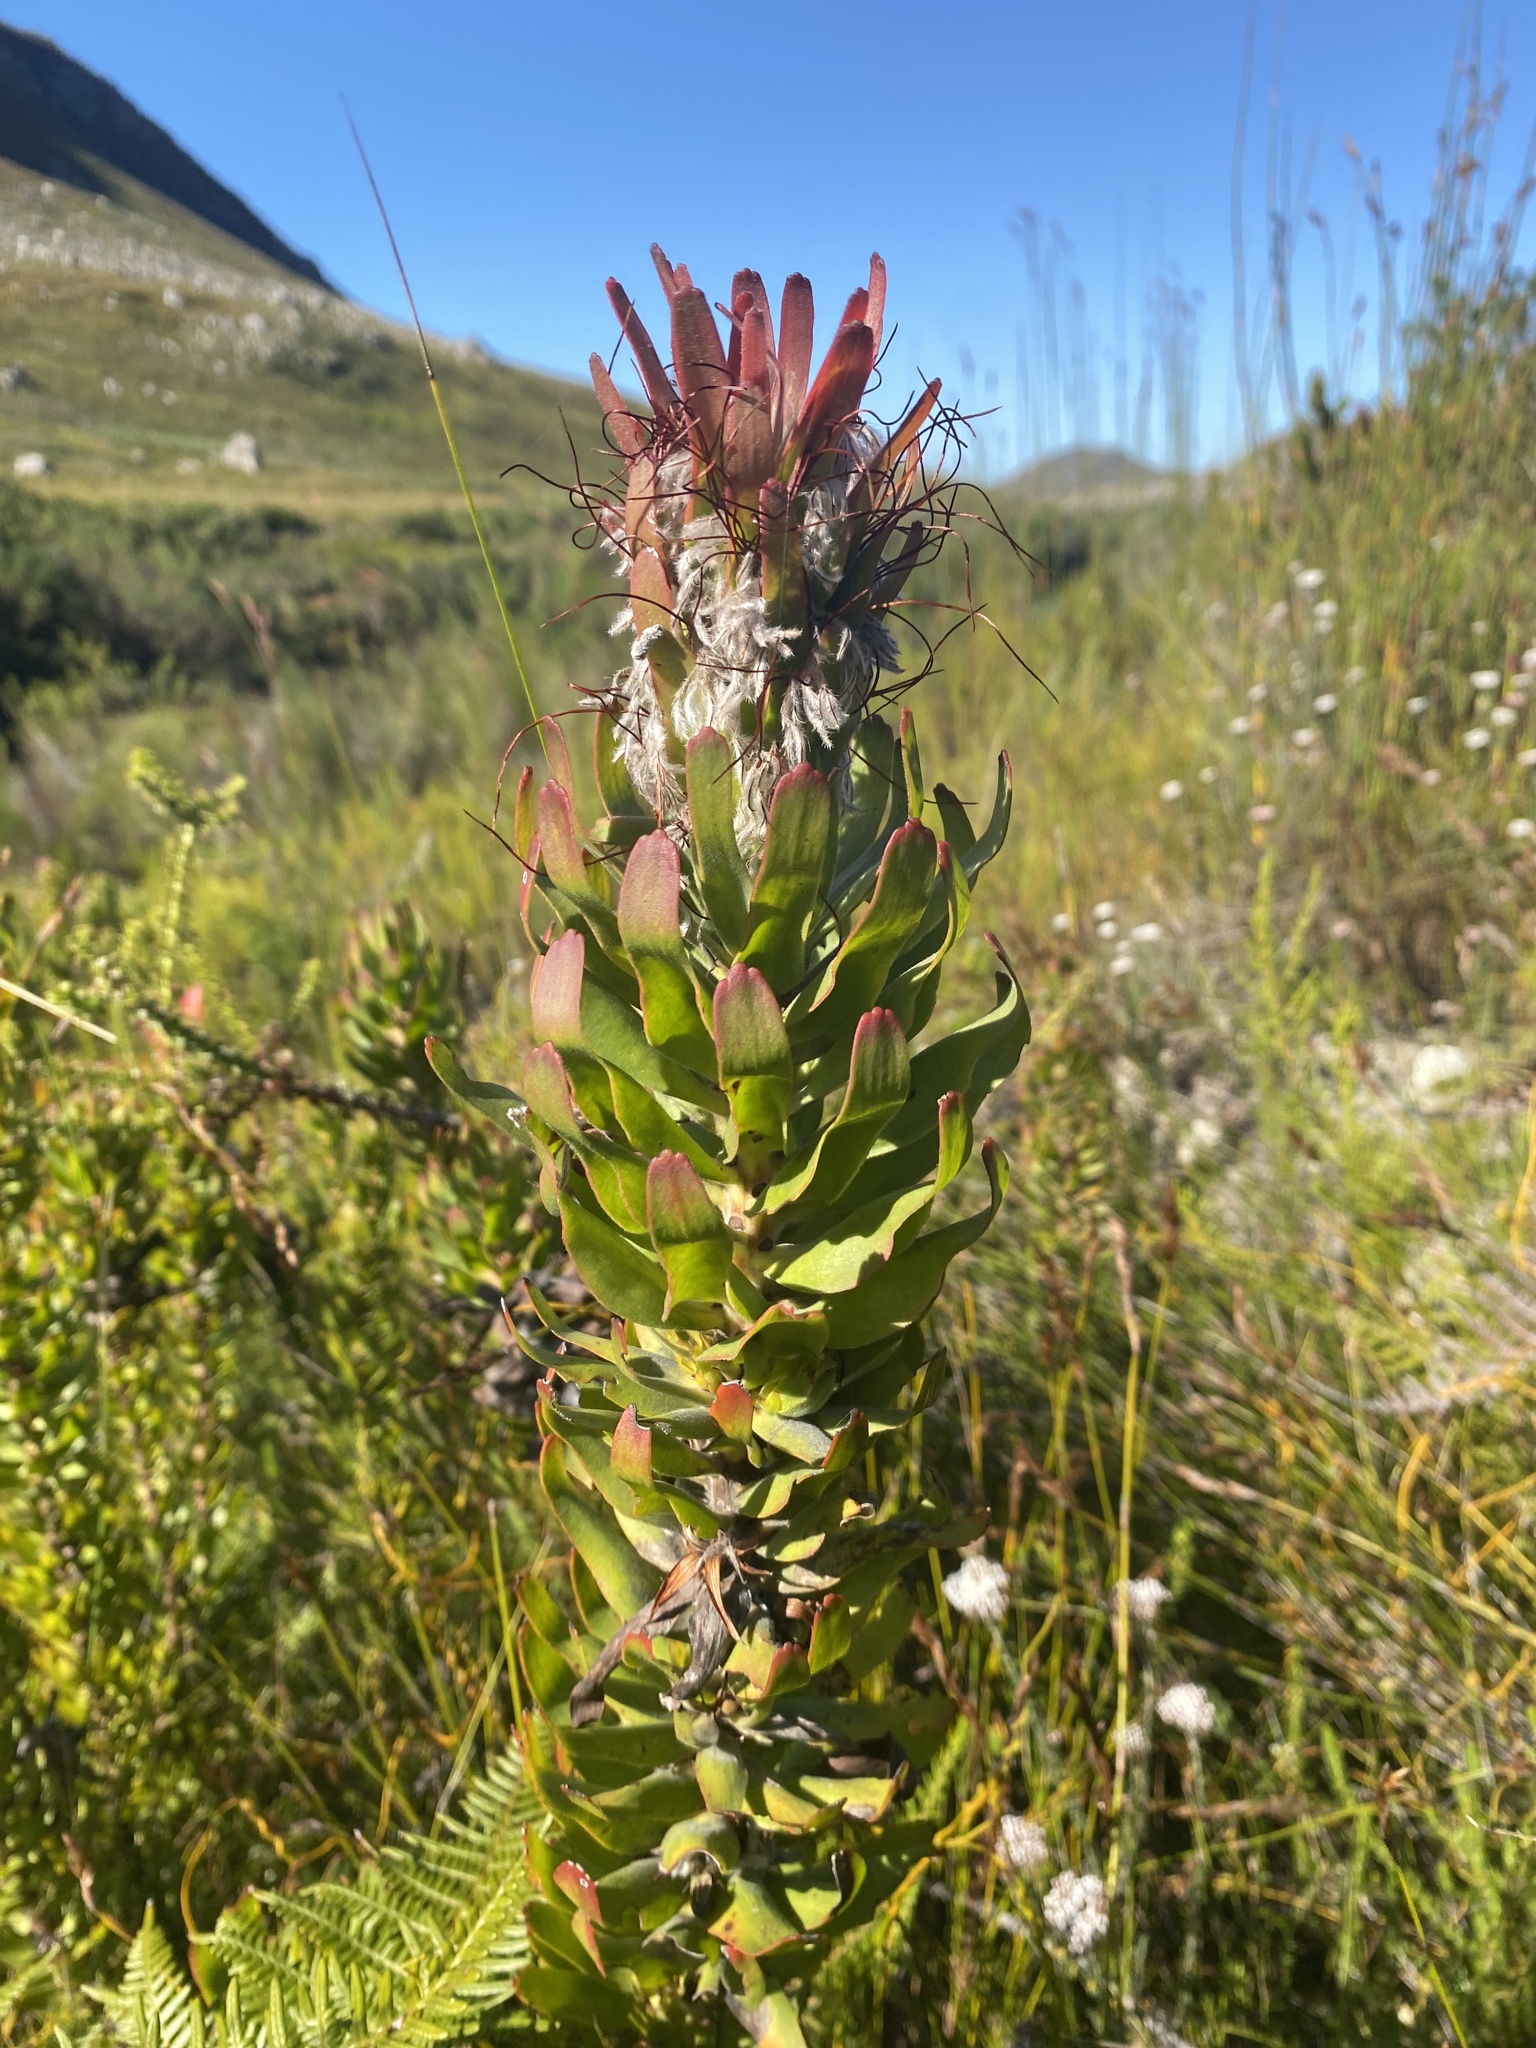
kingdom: Plantae
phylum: Tracheophyta
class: Magnoliopsida
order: Proteales
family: Proteaceae
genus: Mimetes
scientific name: Mimetes cucullatus
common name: Common pagoda
